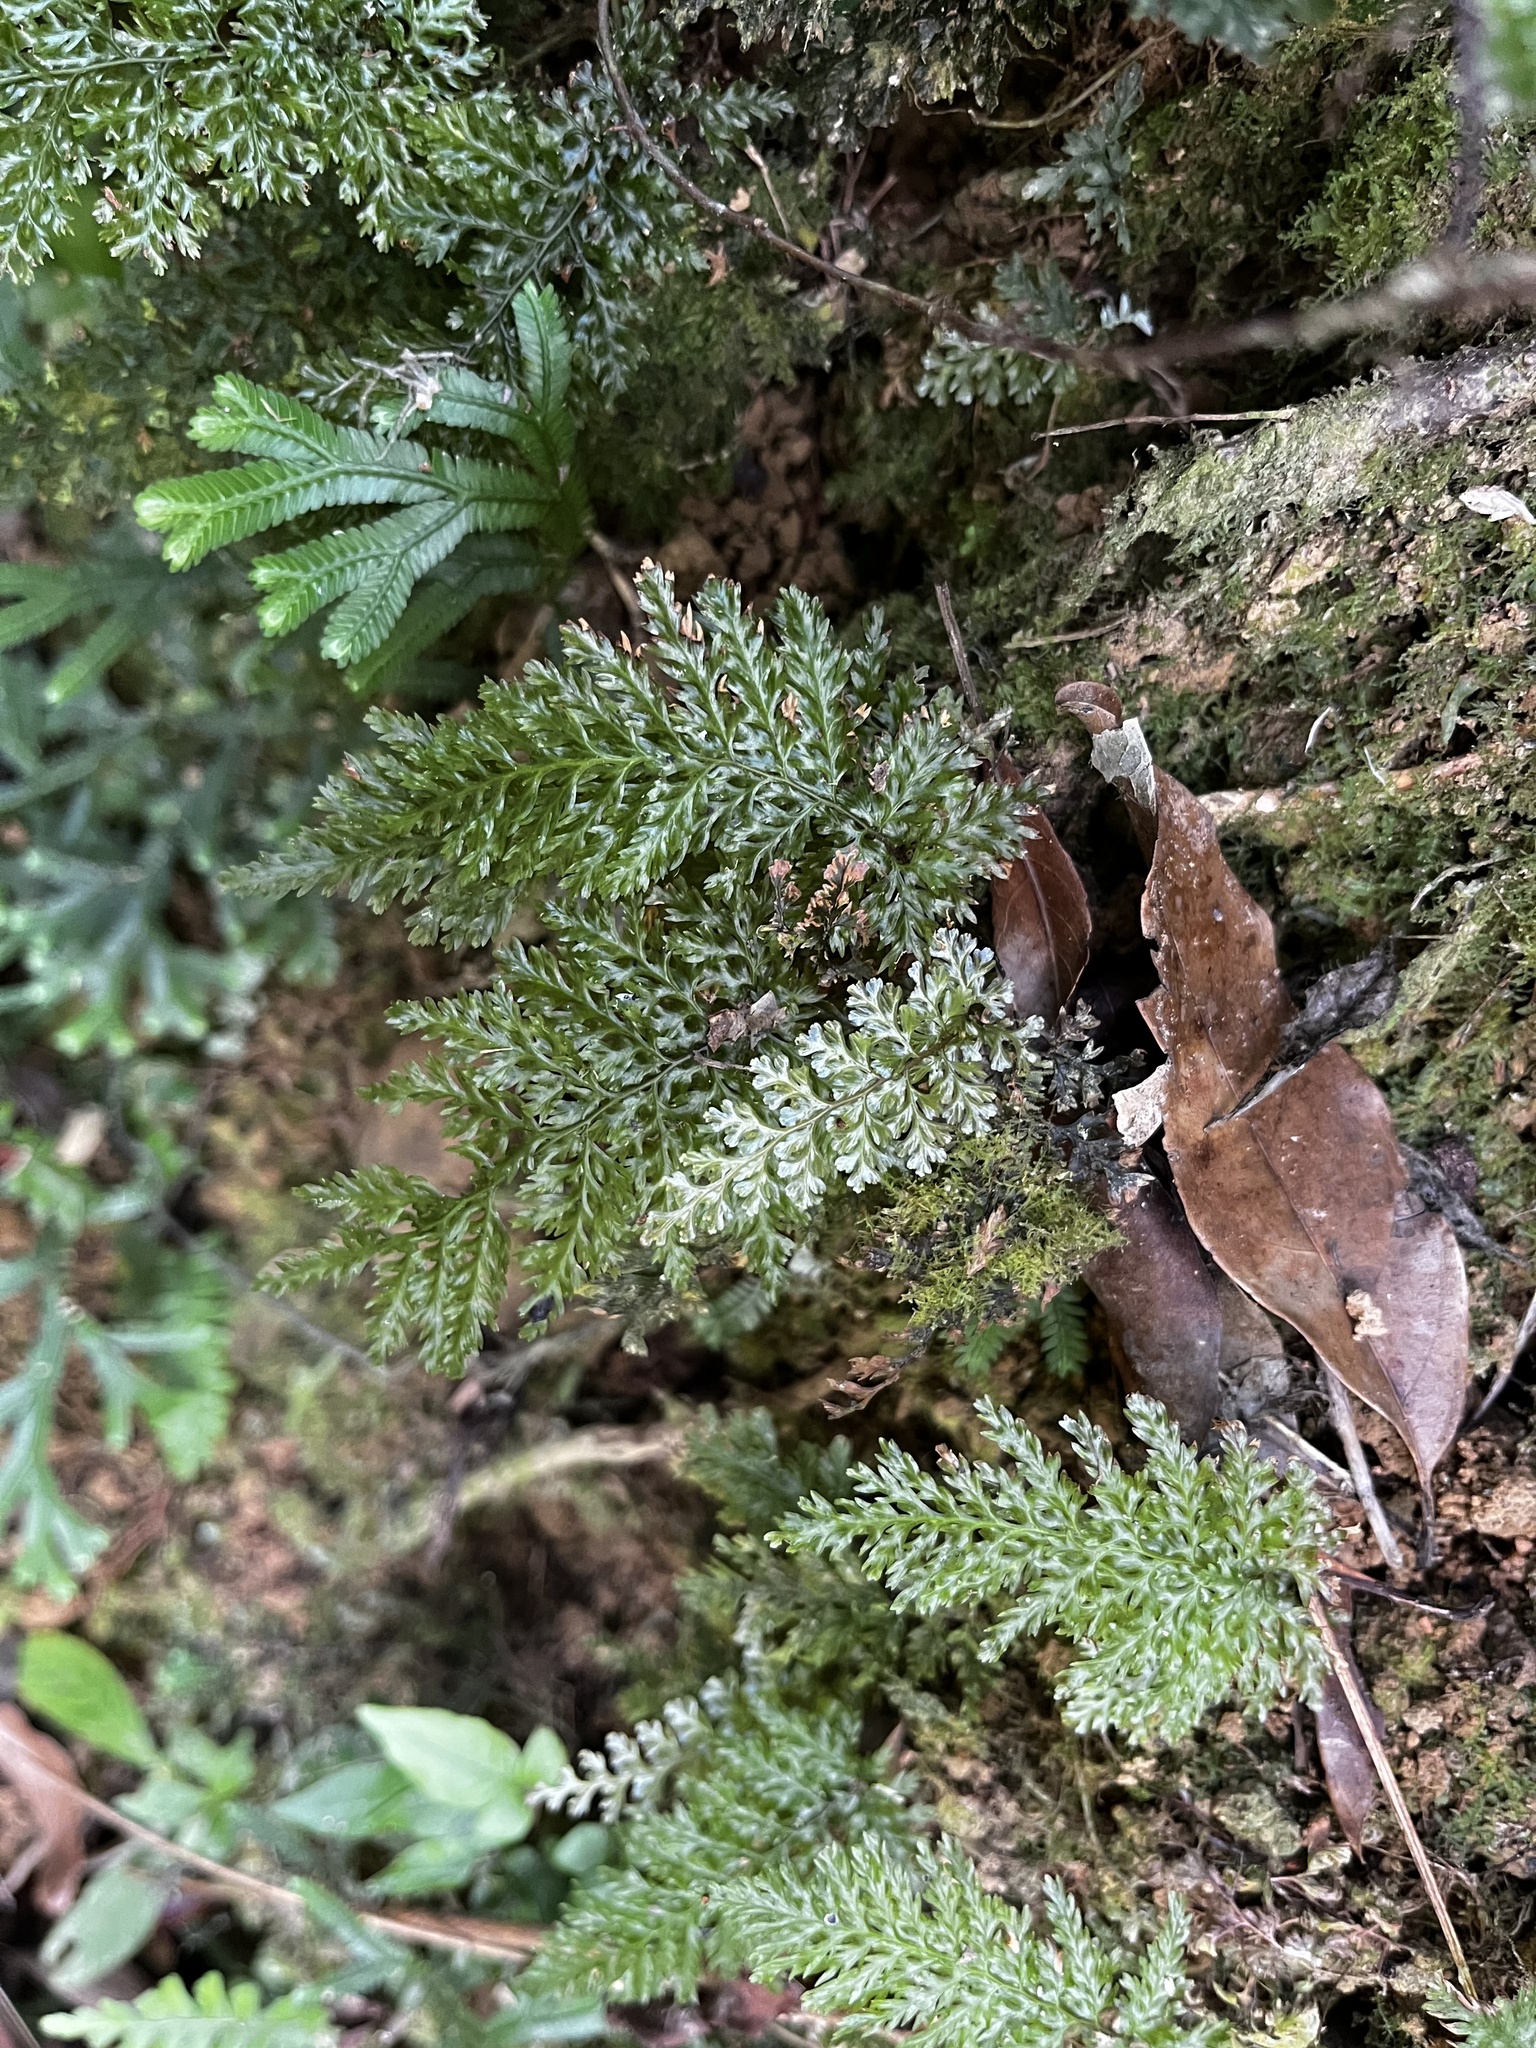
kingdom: Plantae
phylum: Tracheophyta
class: Polypodiopsida
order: Hymenophyllales
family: Hymenophyllaceae
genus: Abrodictyum
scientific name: Abrodictyum obscurum
